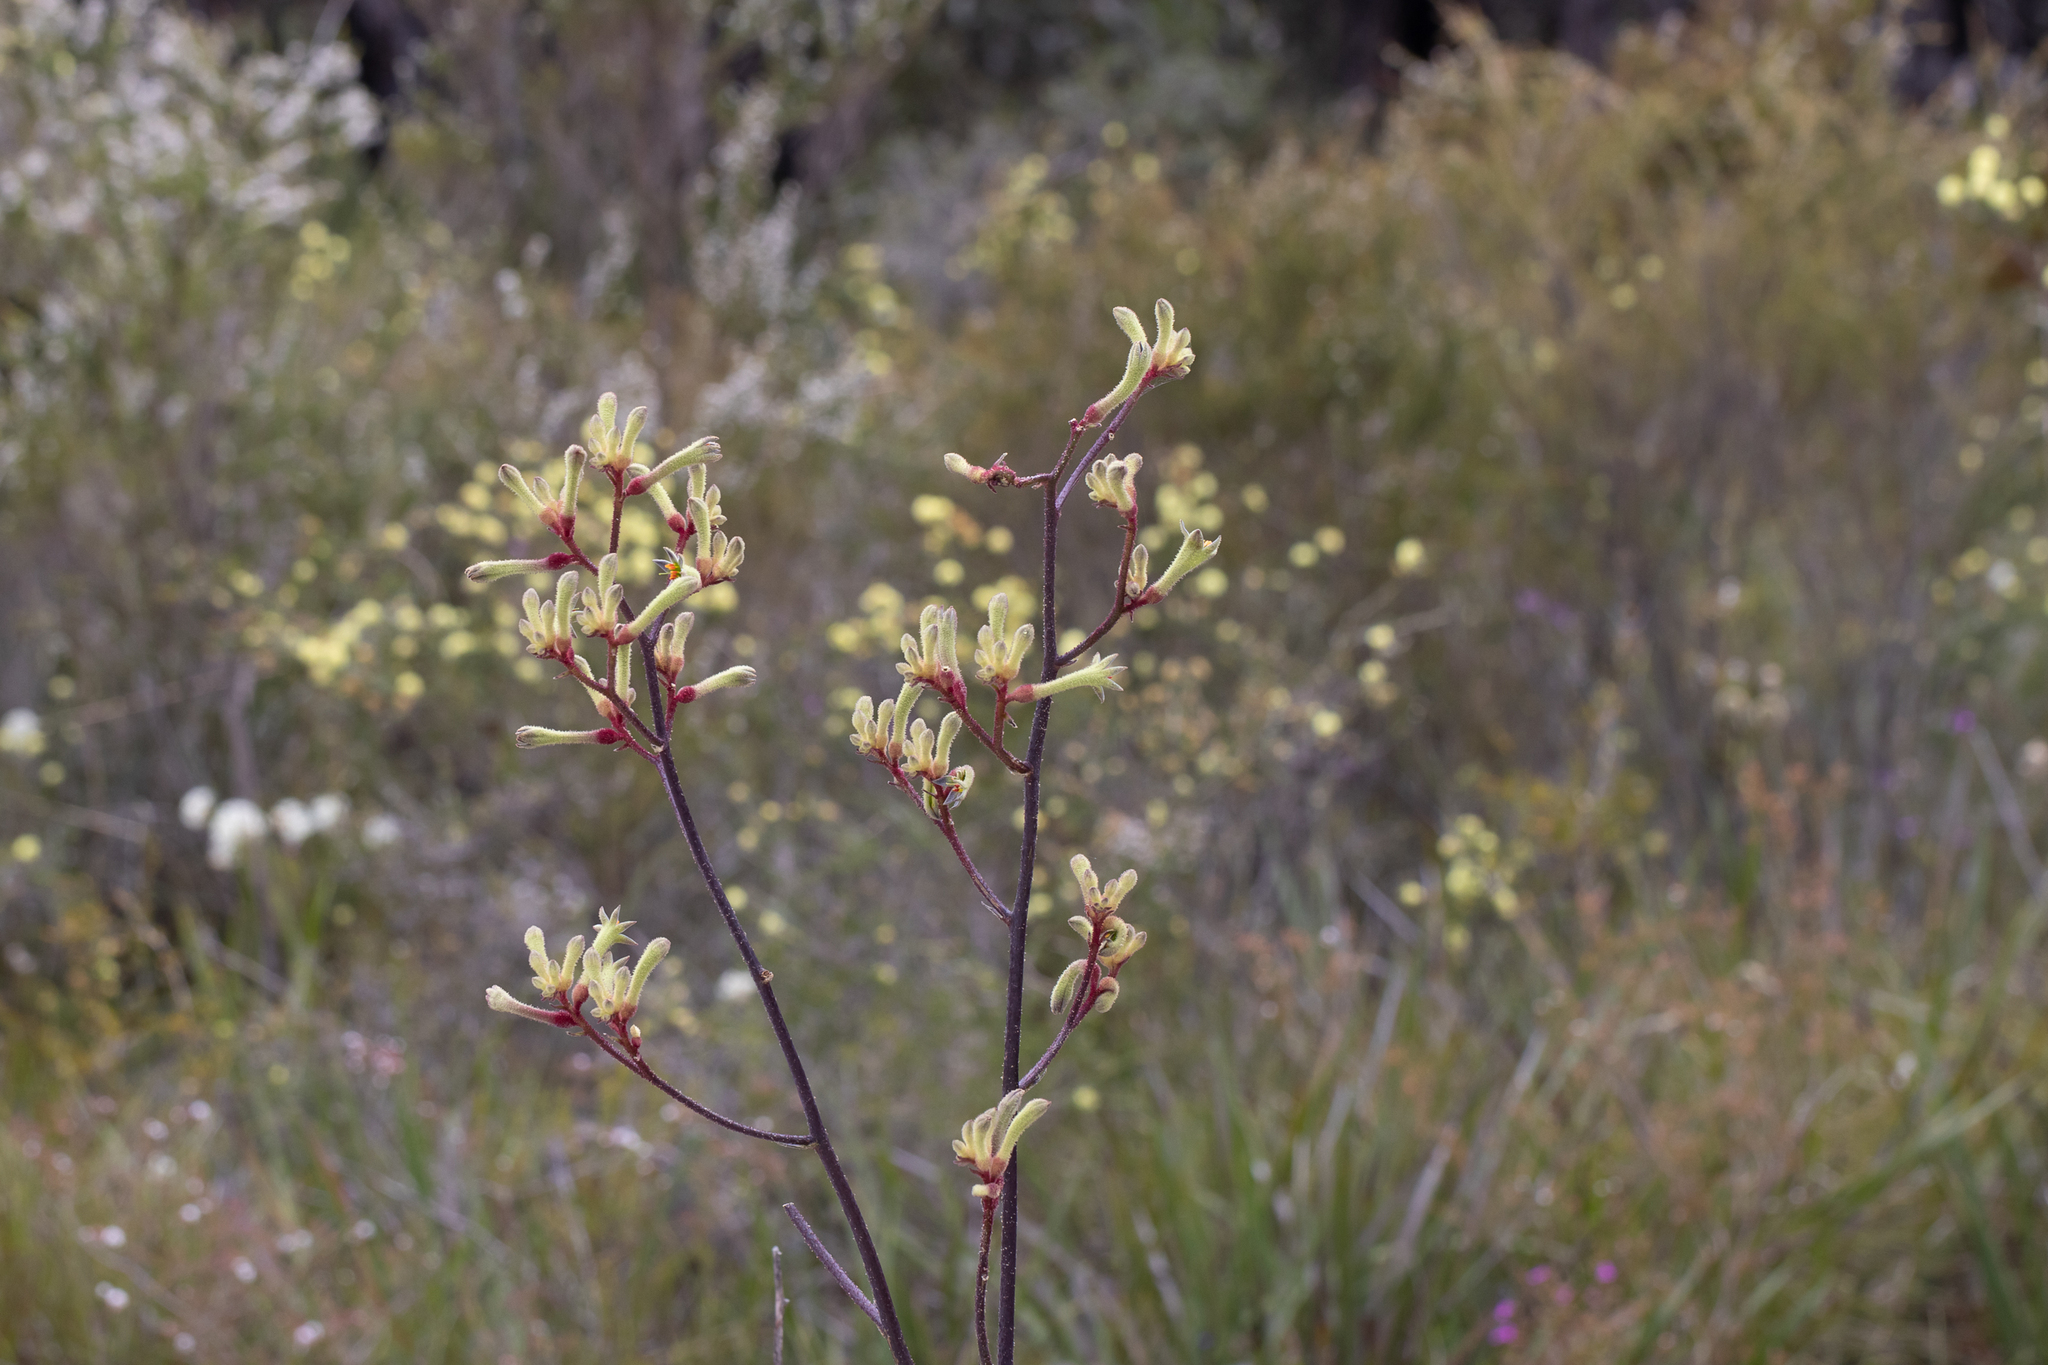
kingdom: Plantae
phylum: Tracheophyta
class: Liliopsida
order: Commelinales
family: Haemodoraceae
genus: Anigozanthos
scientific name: Anigozanthos flavidus
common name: Evergreen kangaroo-paw
